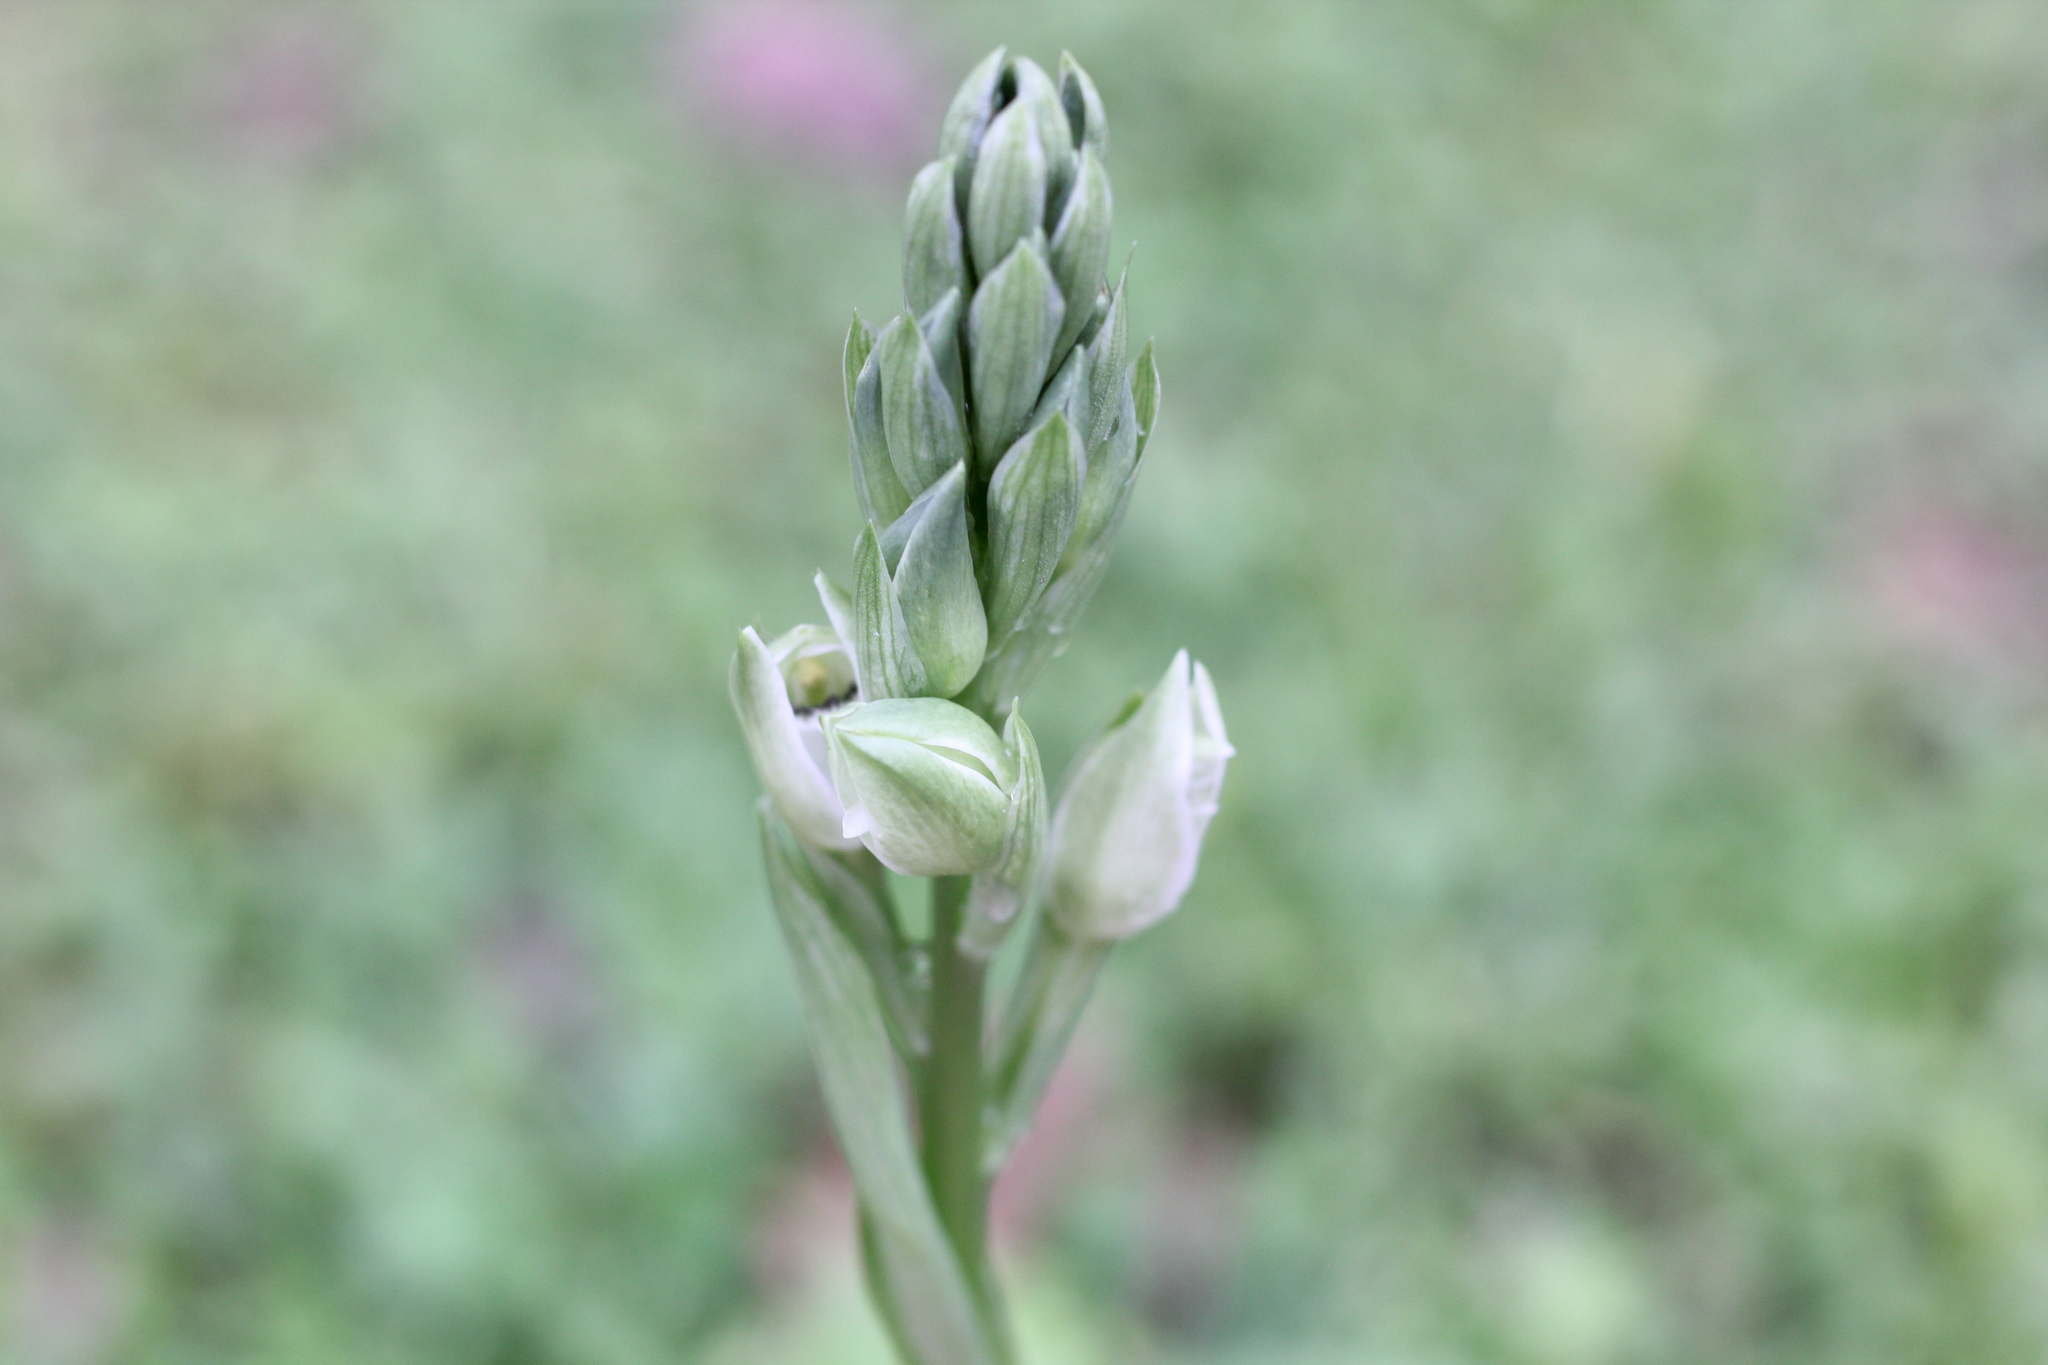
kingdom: Plantae
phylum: Tracheophyta
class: Liliopsida
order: Asparagales
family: Orchidaceae
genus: Chloraea
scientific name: Chloraea membranacea
